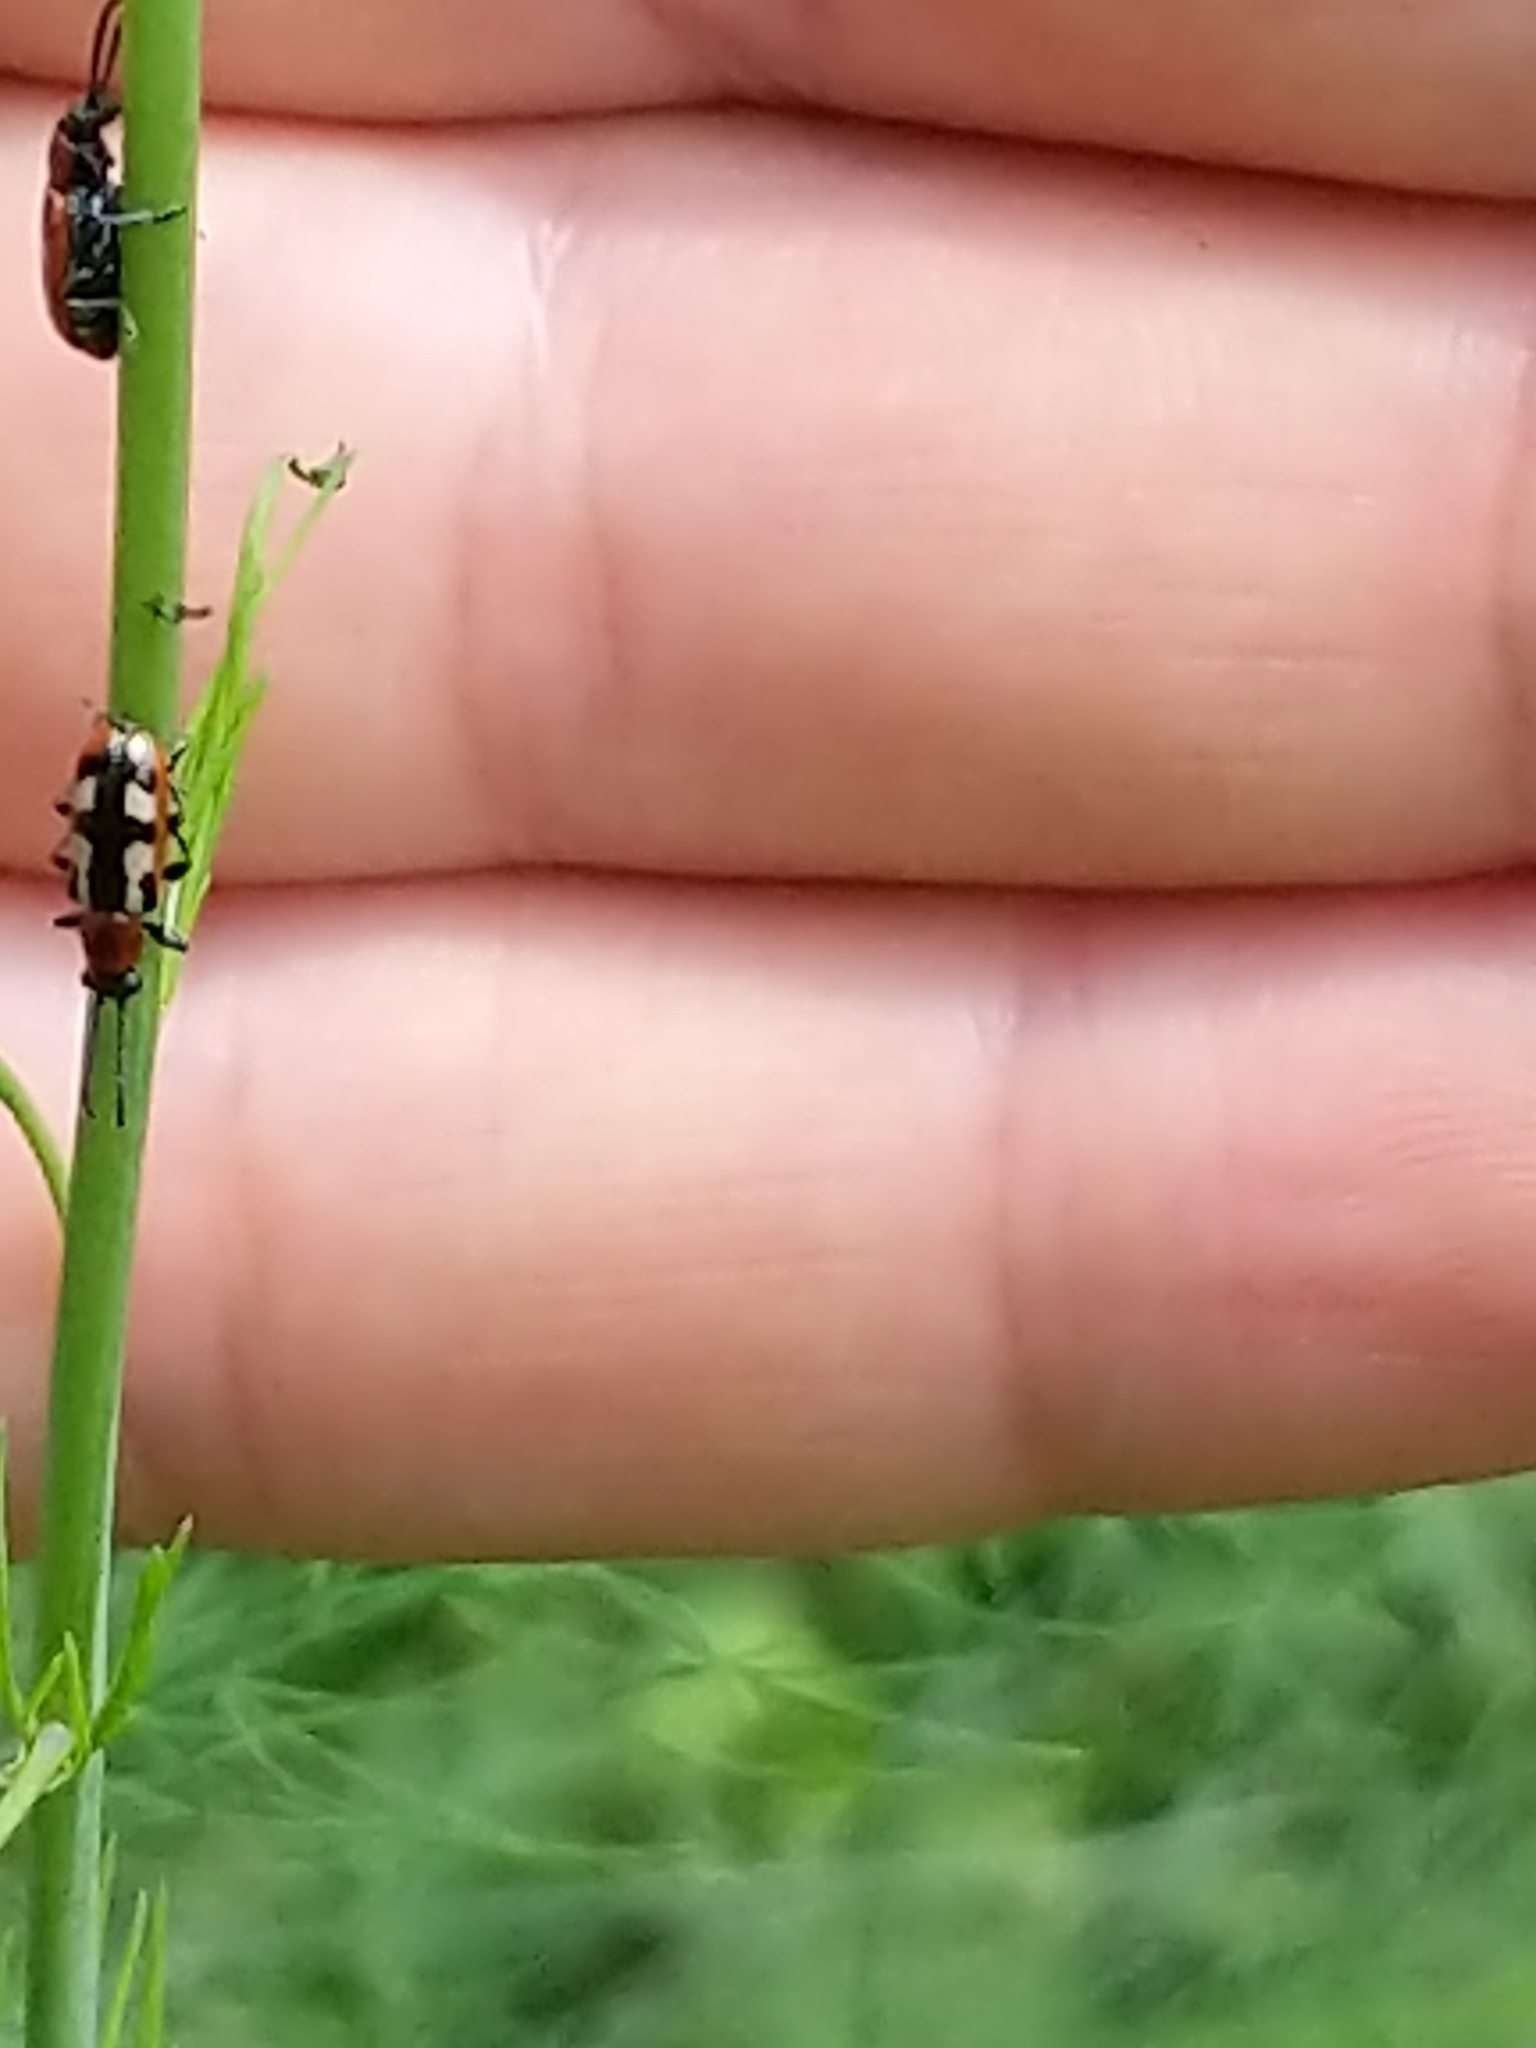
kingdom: Animalia
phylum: Arthropoda
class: Insecta
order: Coleoptera
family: Chrysomelidae
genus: Crioceris
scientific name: Crioceris asparagi
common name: Asparagus beetle
